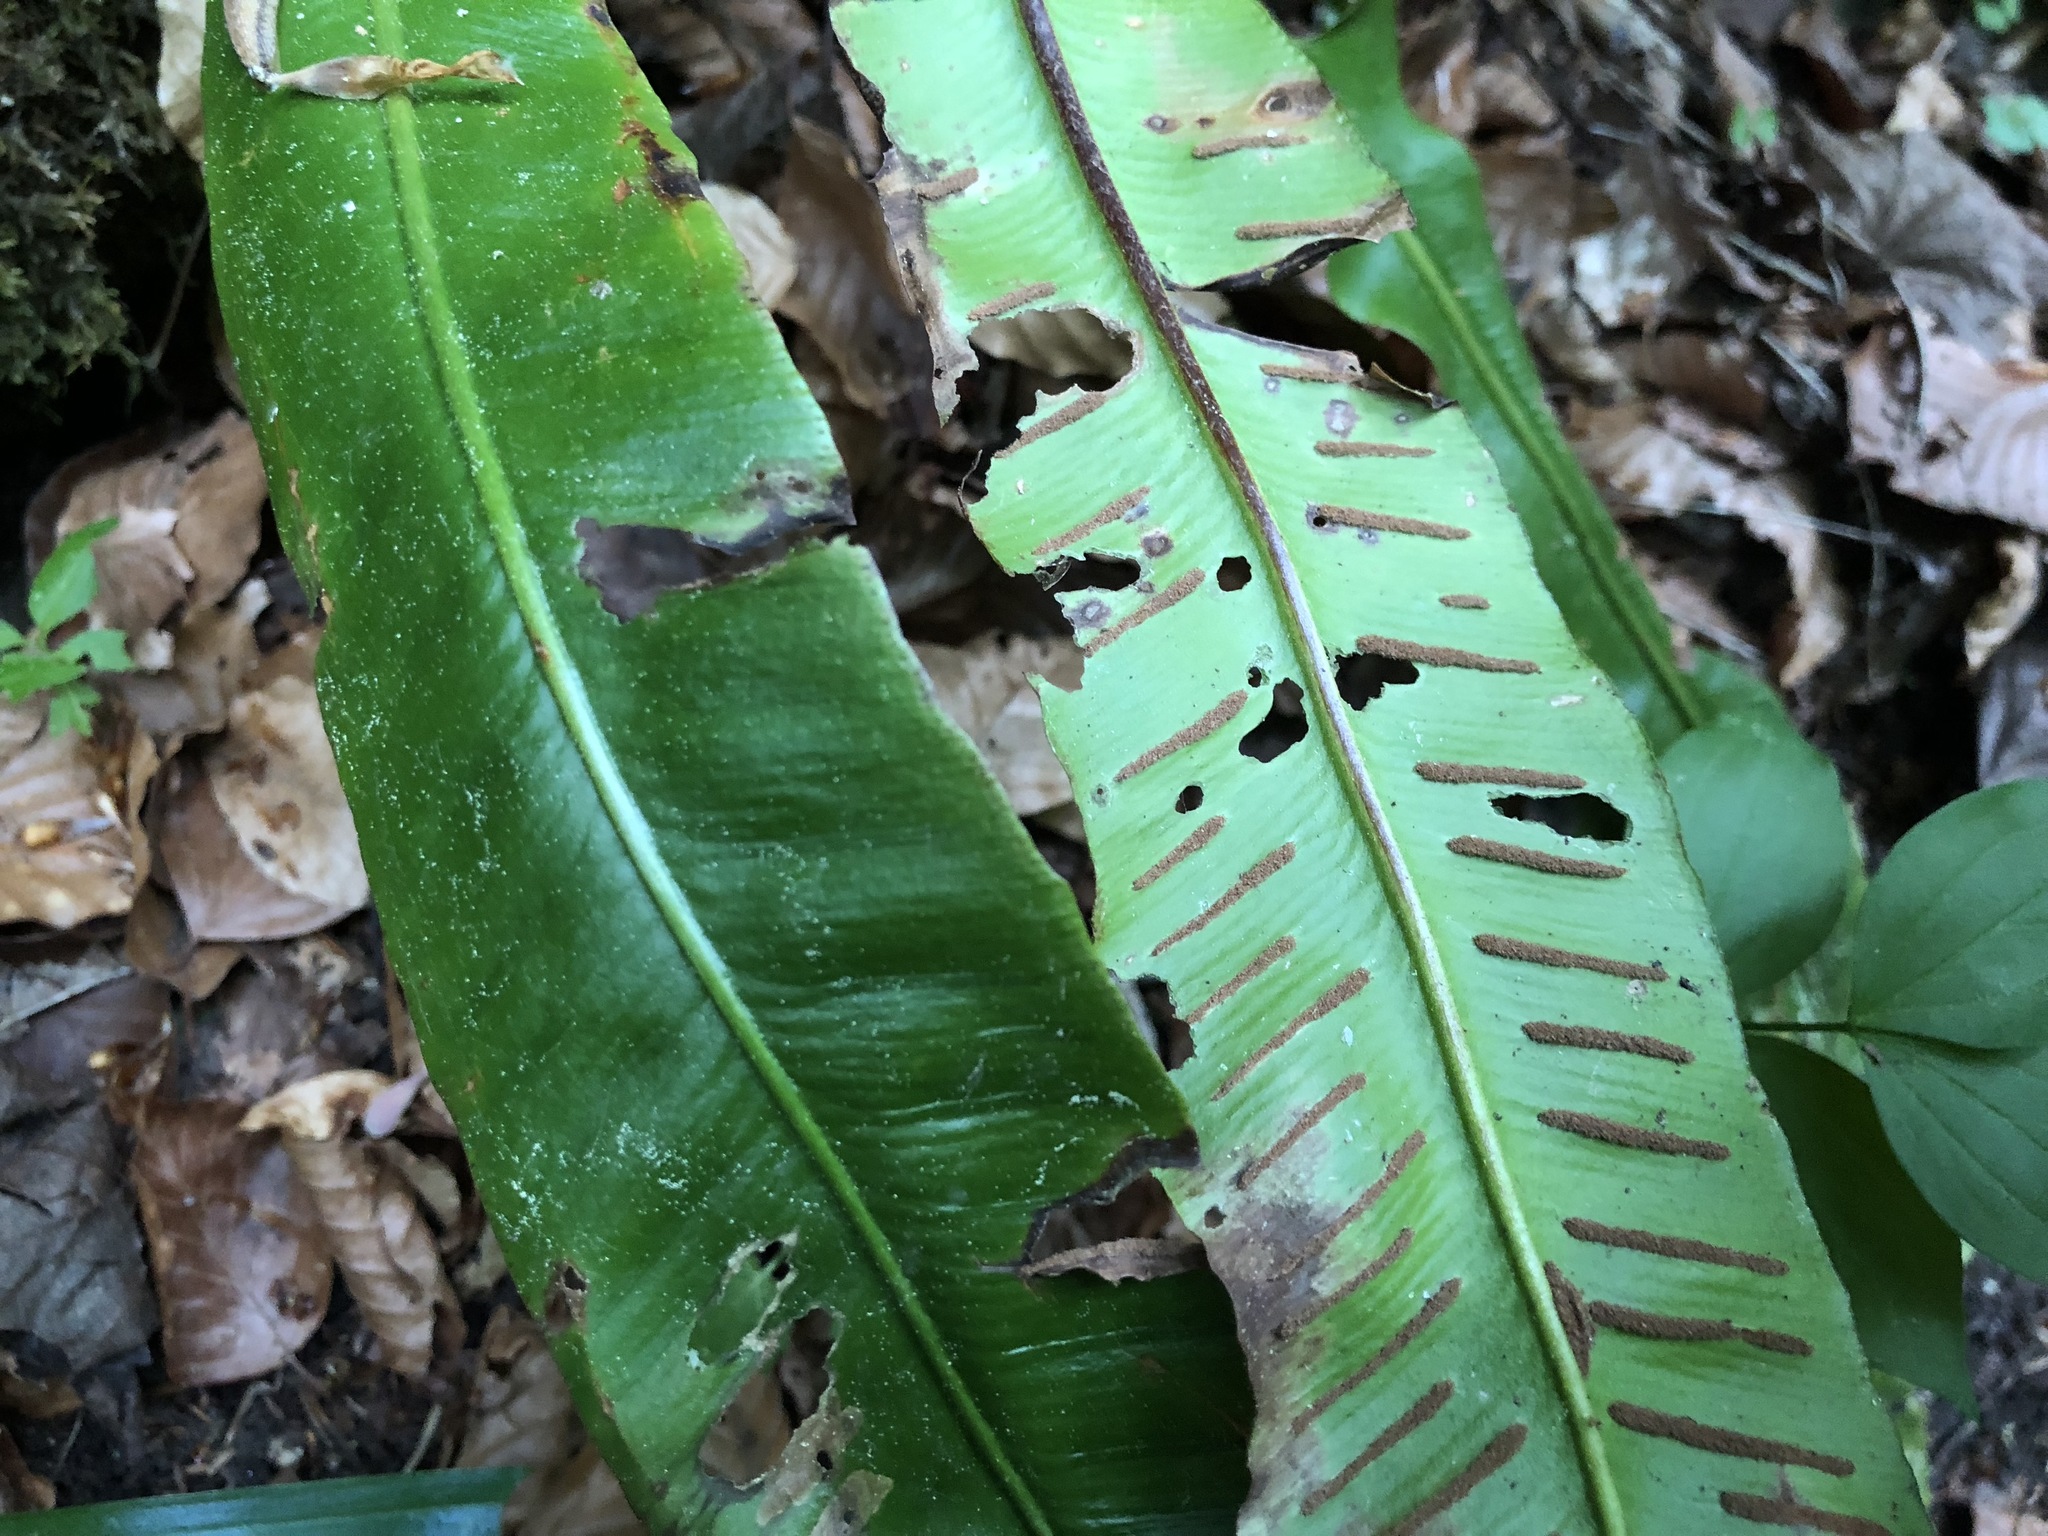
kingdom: Plantae
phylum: Tracheophyta
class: Polypodiopsida
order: Polypodiales
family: Aspleniaceae
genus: Asplenium
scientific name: Asplenium scolopendrium
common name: Hart's-tongue fern
